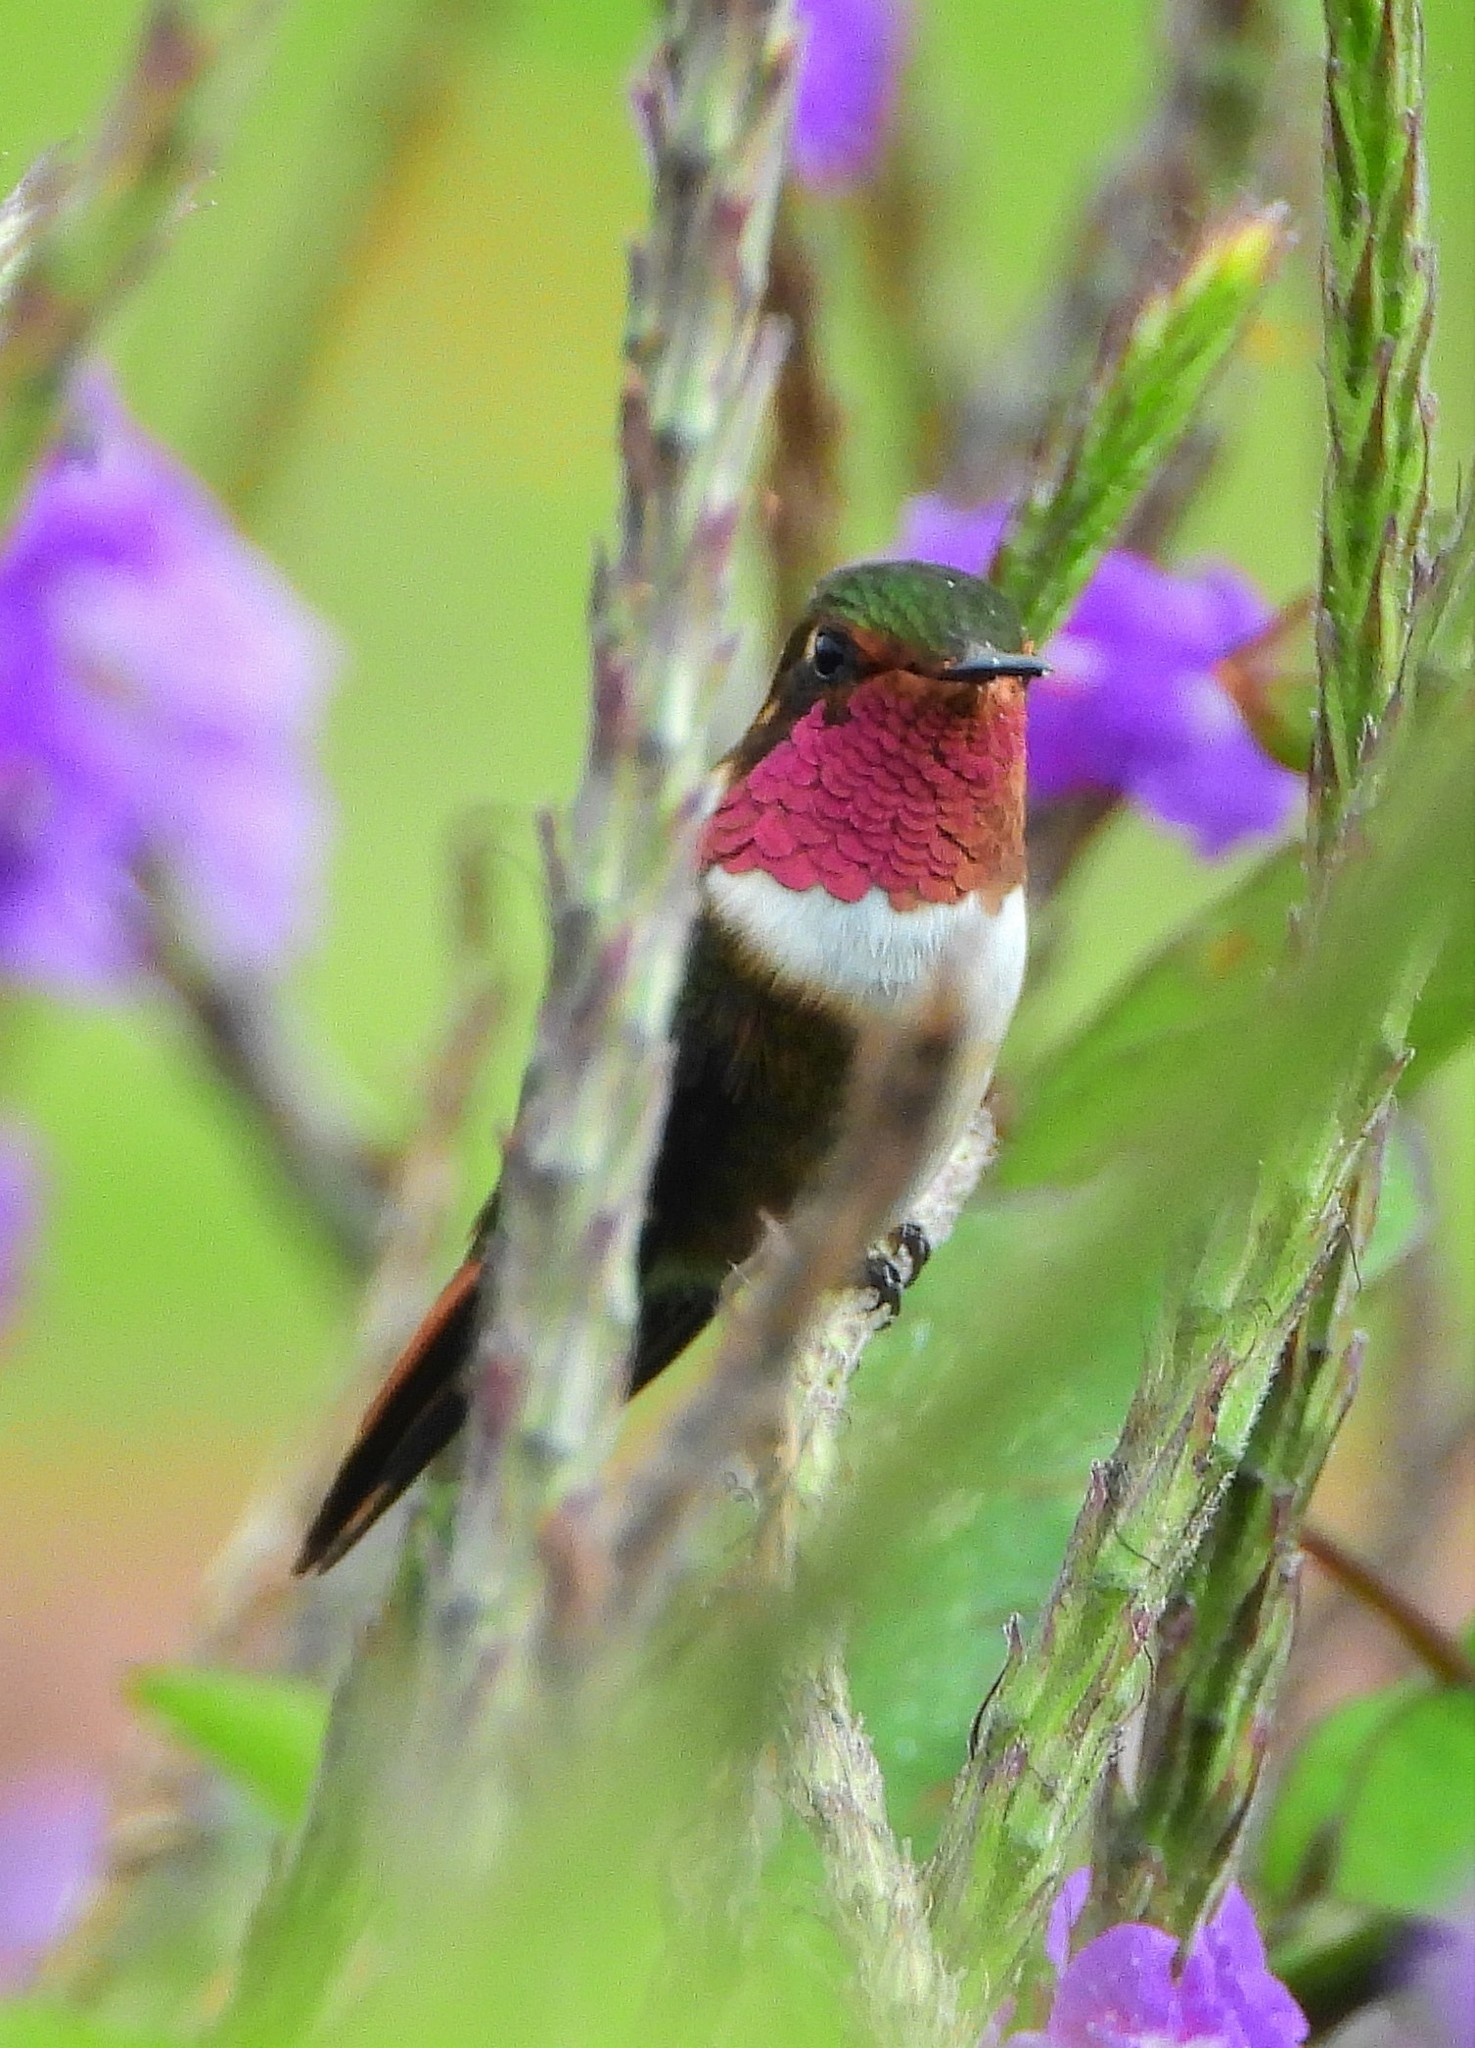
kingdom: Animalia
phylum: Chordata
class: Aves
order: Apodiformes
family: Trochilidae
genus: Selasphorus
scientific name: Selasphorus flammula
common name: Volcano hummingbird
